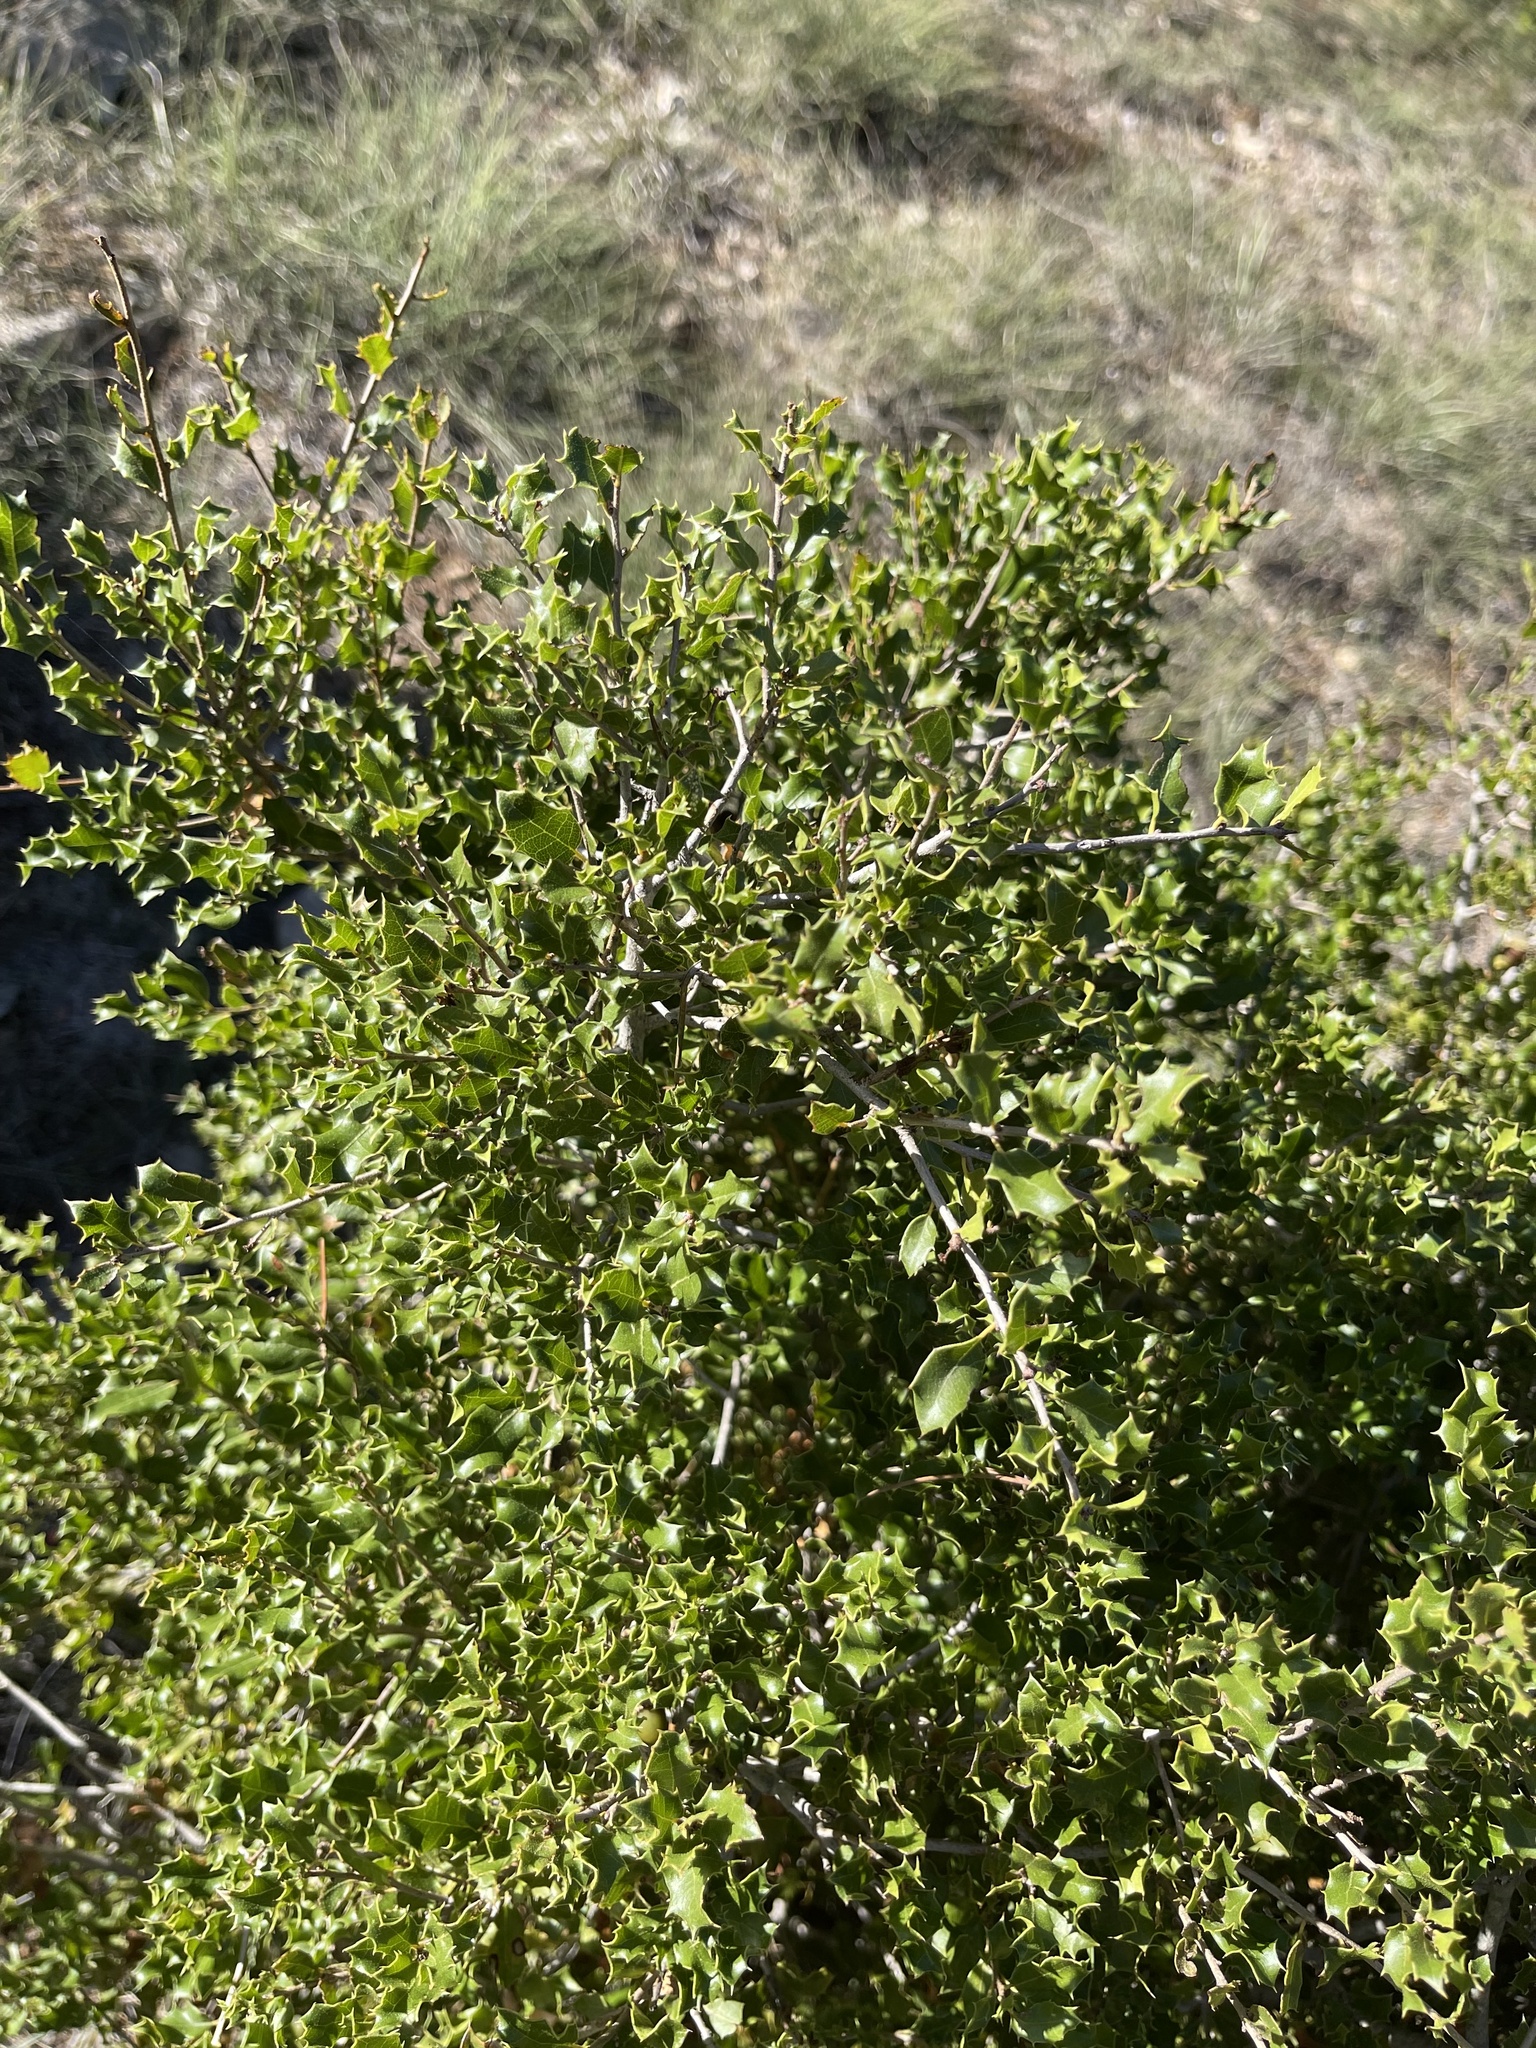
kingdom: Plantae
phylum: Tracheophyta
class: Magnoliopsida
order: Fagales
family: Fagaceae
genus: Quercus
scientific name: Quercus coccifera
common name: Kermes oak
